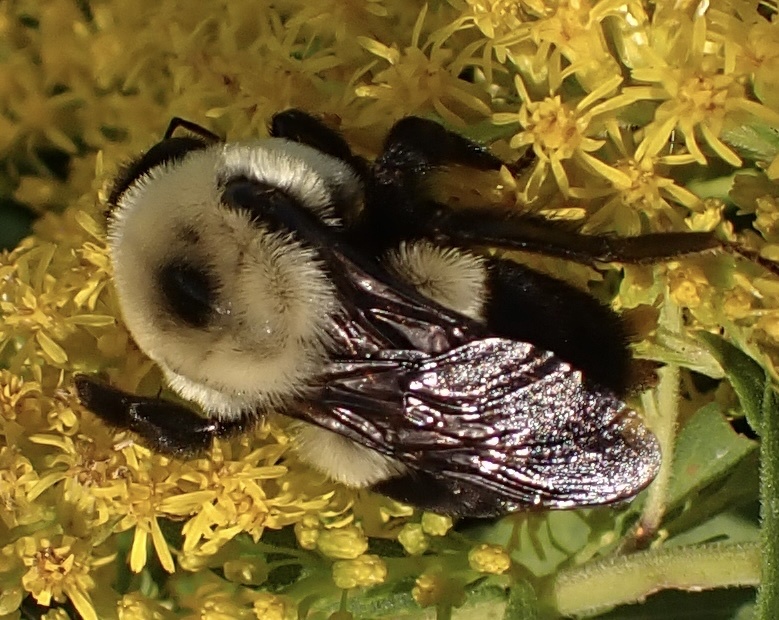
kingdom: Animalia
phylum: Arthropoda
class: Insecta
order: Hymenoptera
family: Apidae
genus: Bombus
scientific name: Bombus griseocollis
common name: Brown-belted bumble bee
